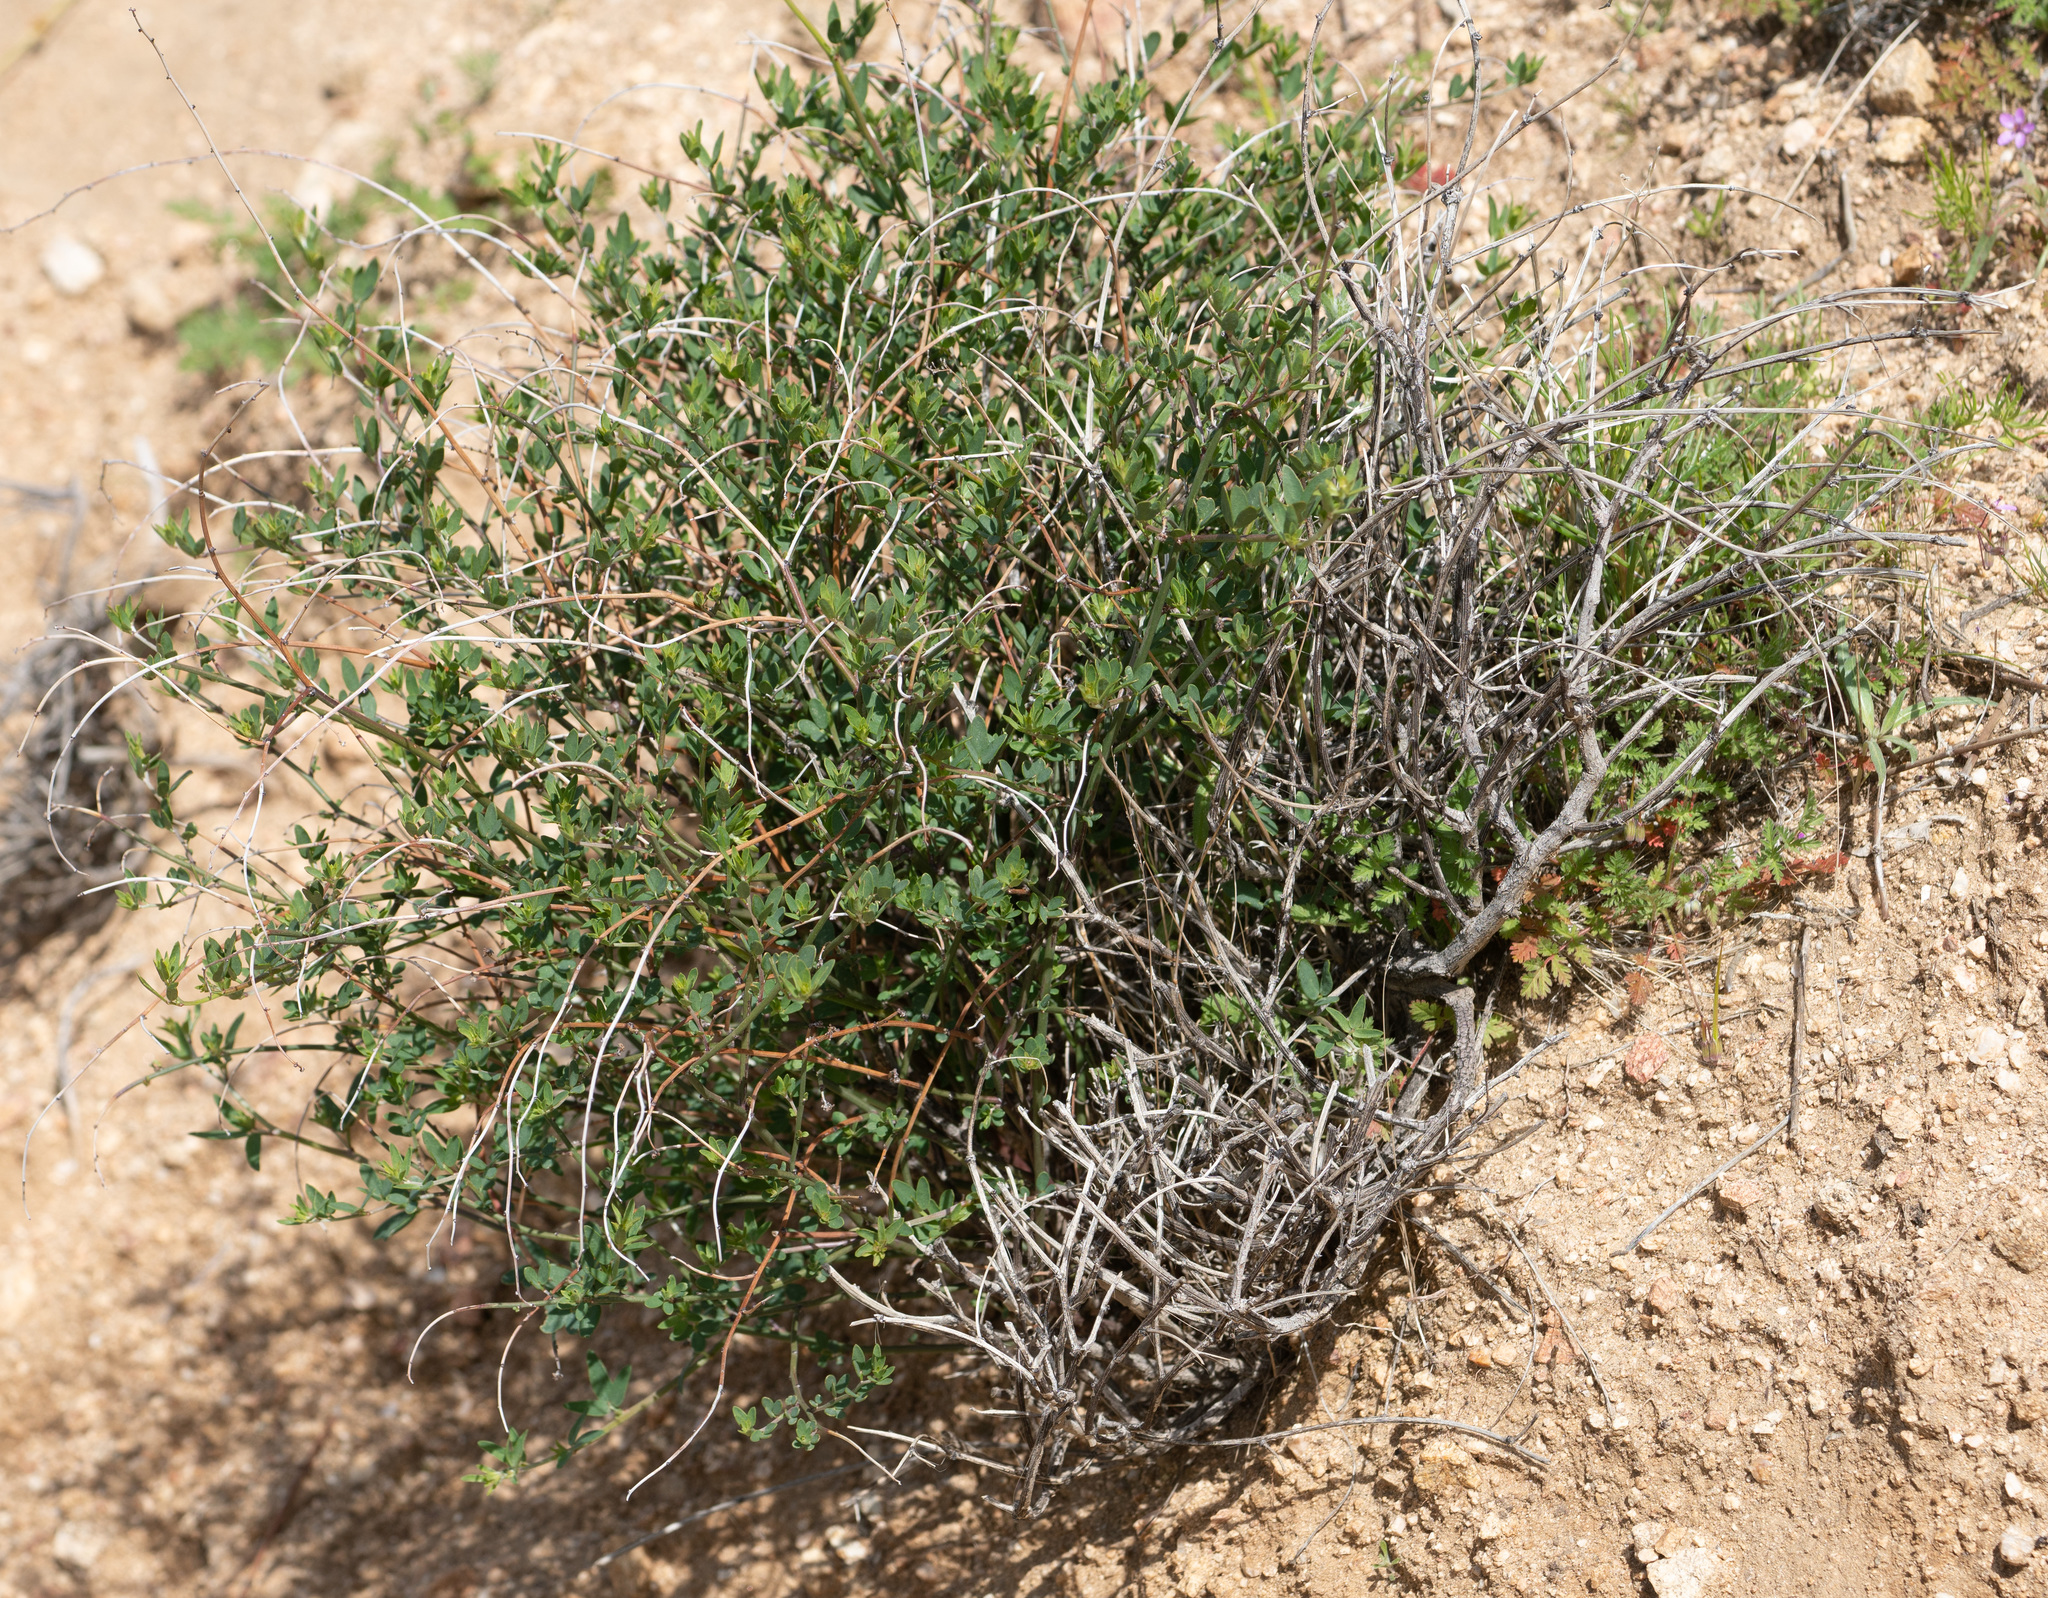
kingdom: Plantae
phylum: Tracheophyta
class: Magnoliopsida
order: Fabales
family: Fabaceae
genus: Acmispon
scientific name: Acmispon glaber
